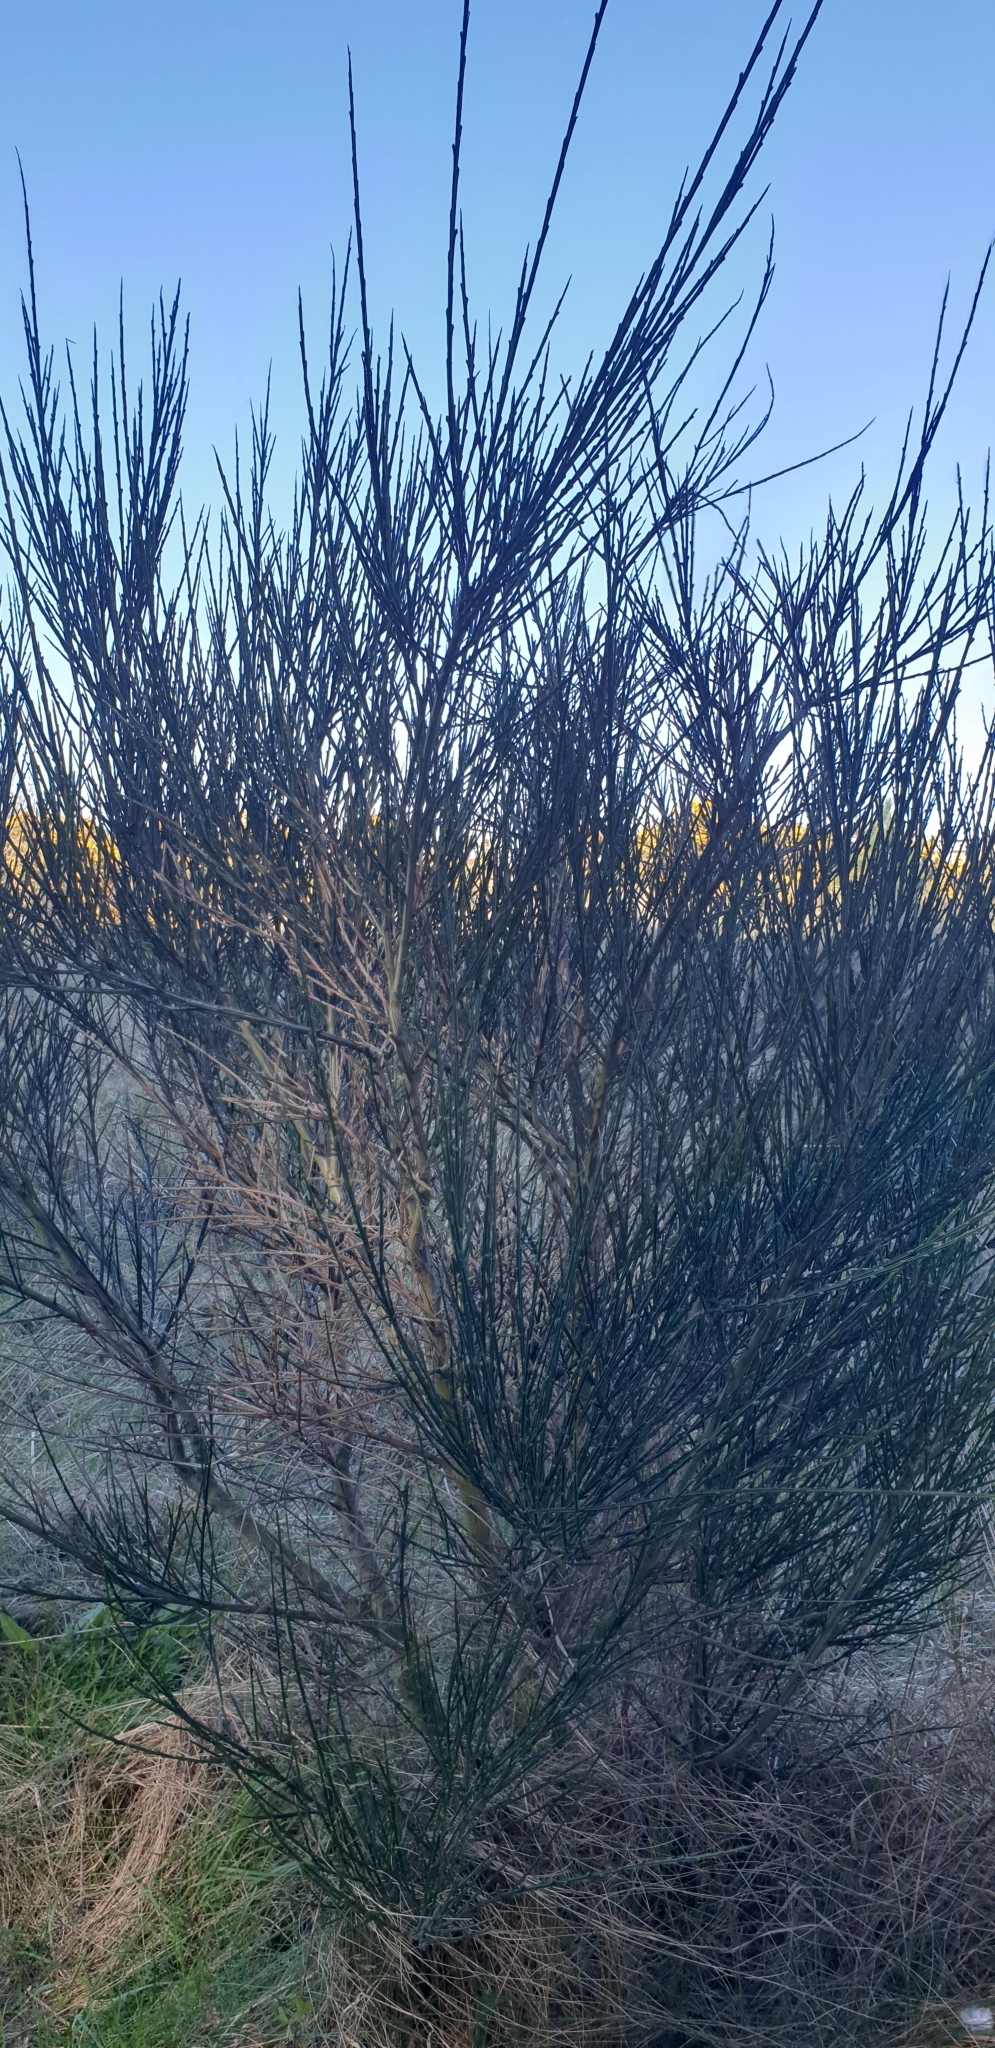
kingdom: Plantae
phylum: Tracheophyta
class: Magnoliopsida
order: Fabales
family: Fabaceae
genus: Cytisus
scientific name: Cytisus scoparius
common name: Scotch broom
